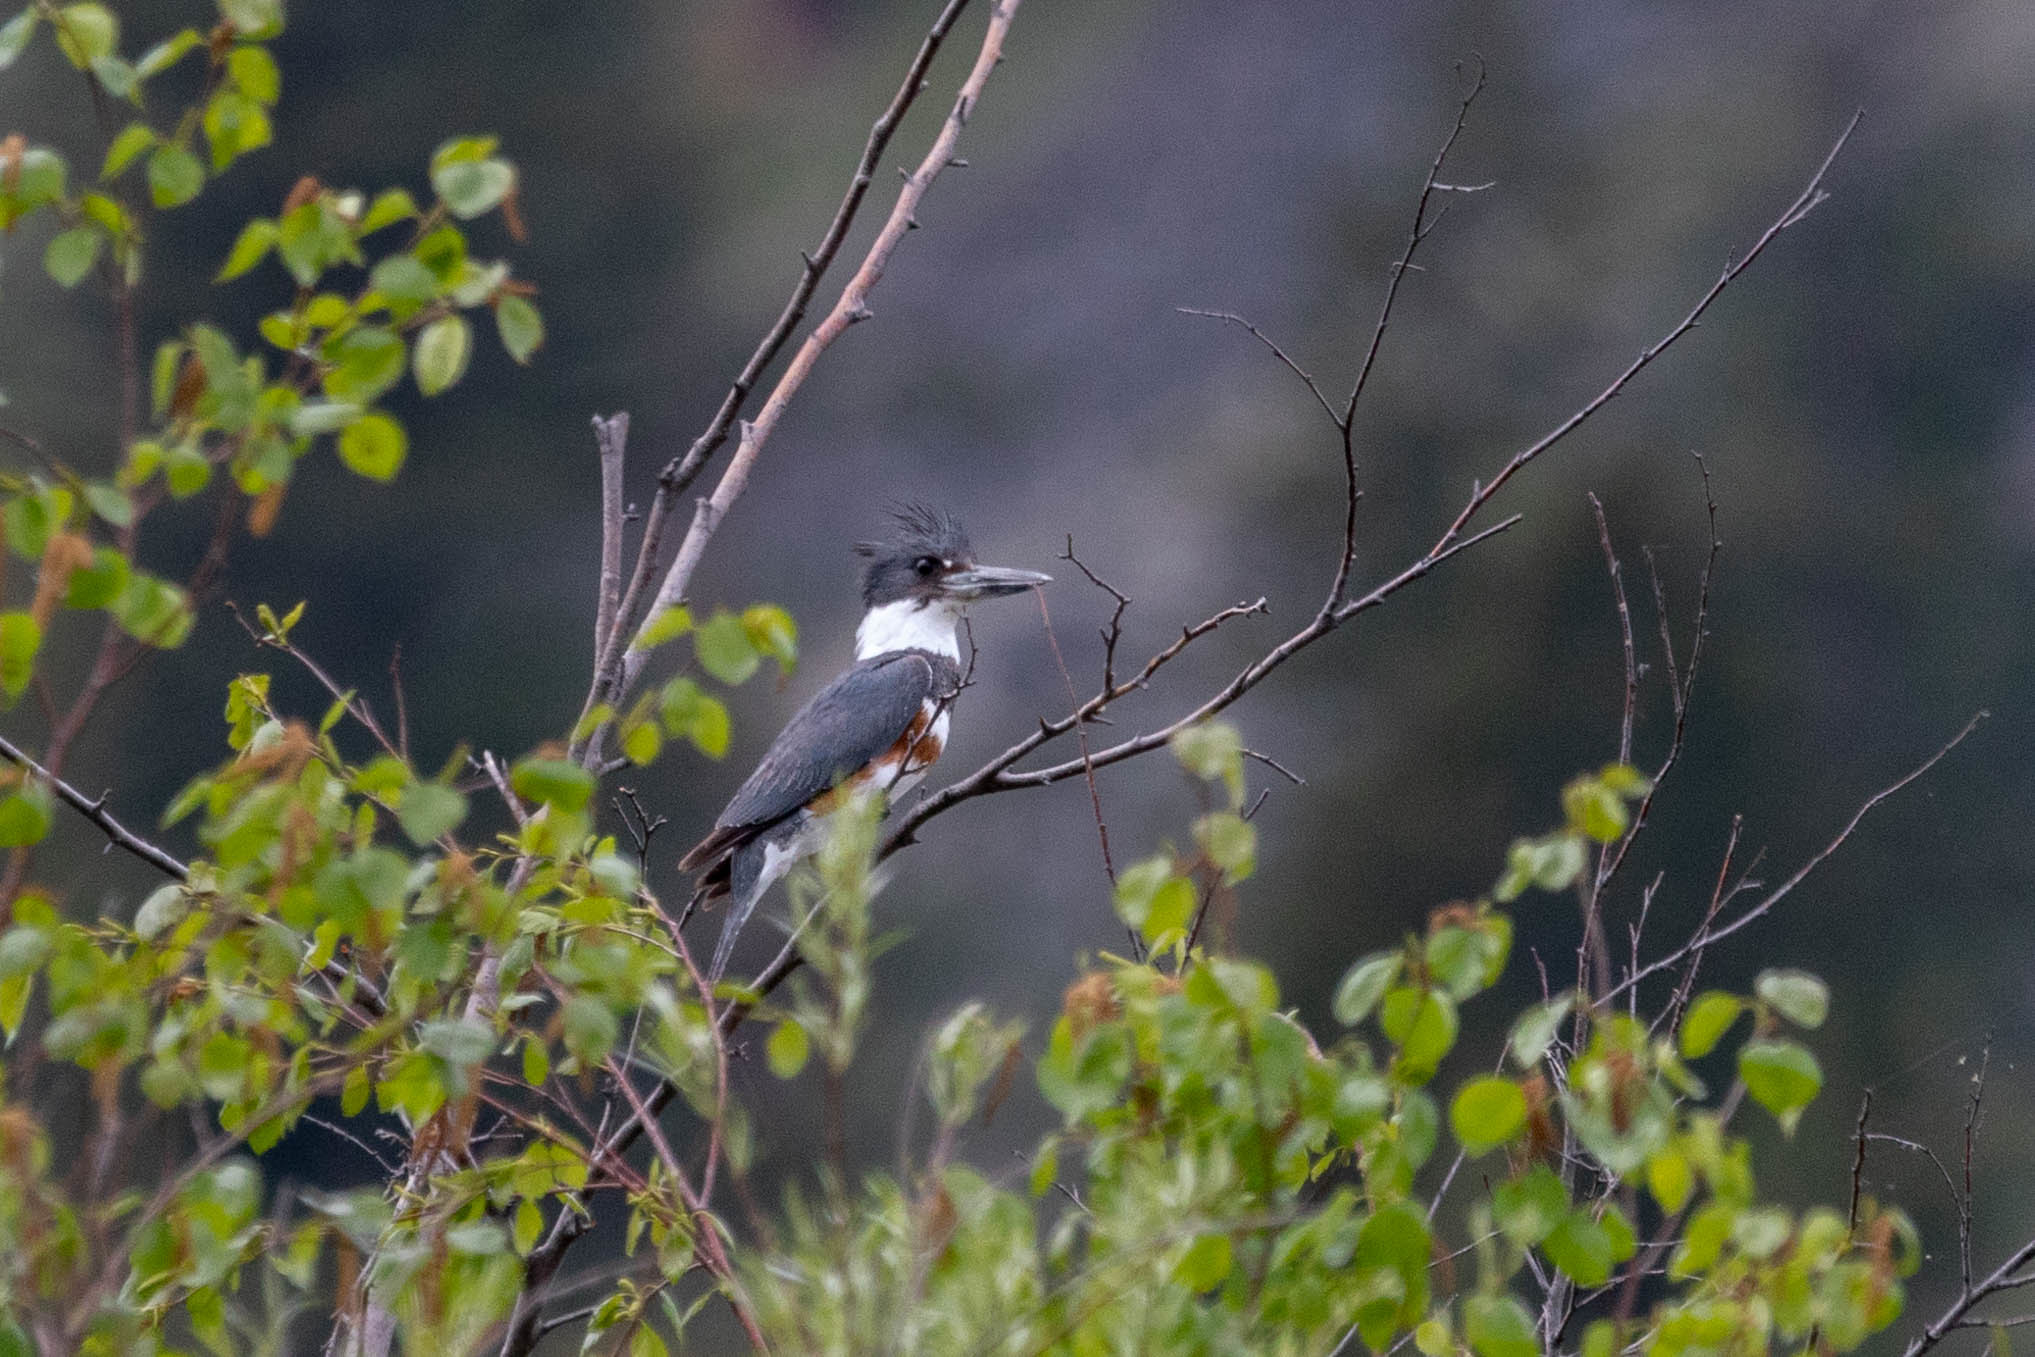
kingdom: Animalia
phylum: Chordata
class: Aves
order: Coraciiformes
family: Alcedinidae
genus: Megaceryle
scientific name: Megaceryle alcyon
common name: Belted kingfisher
